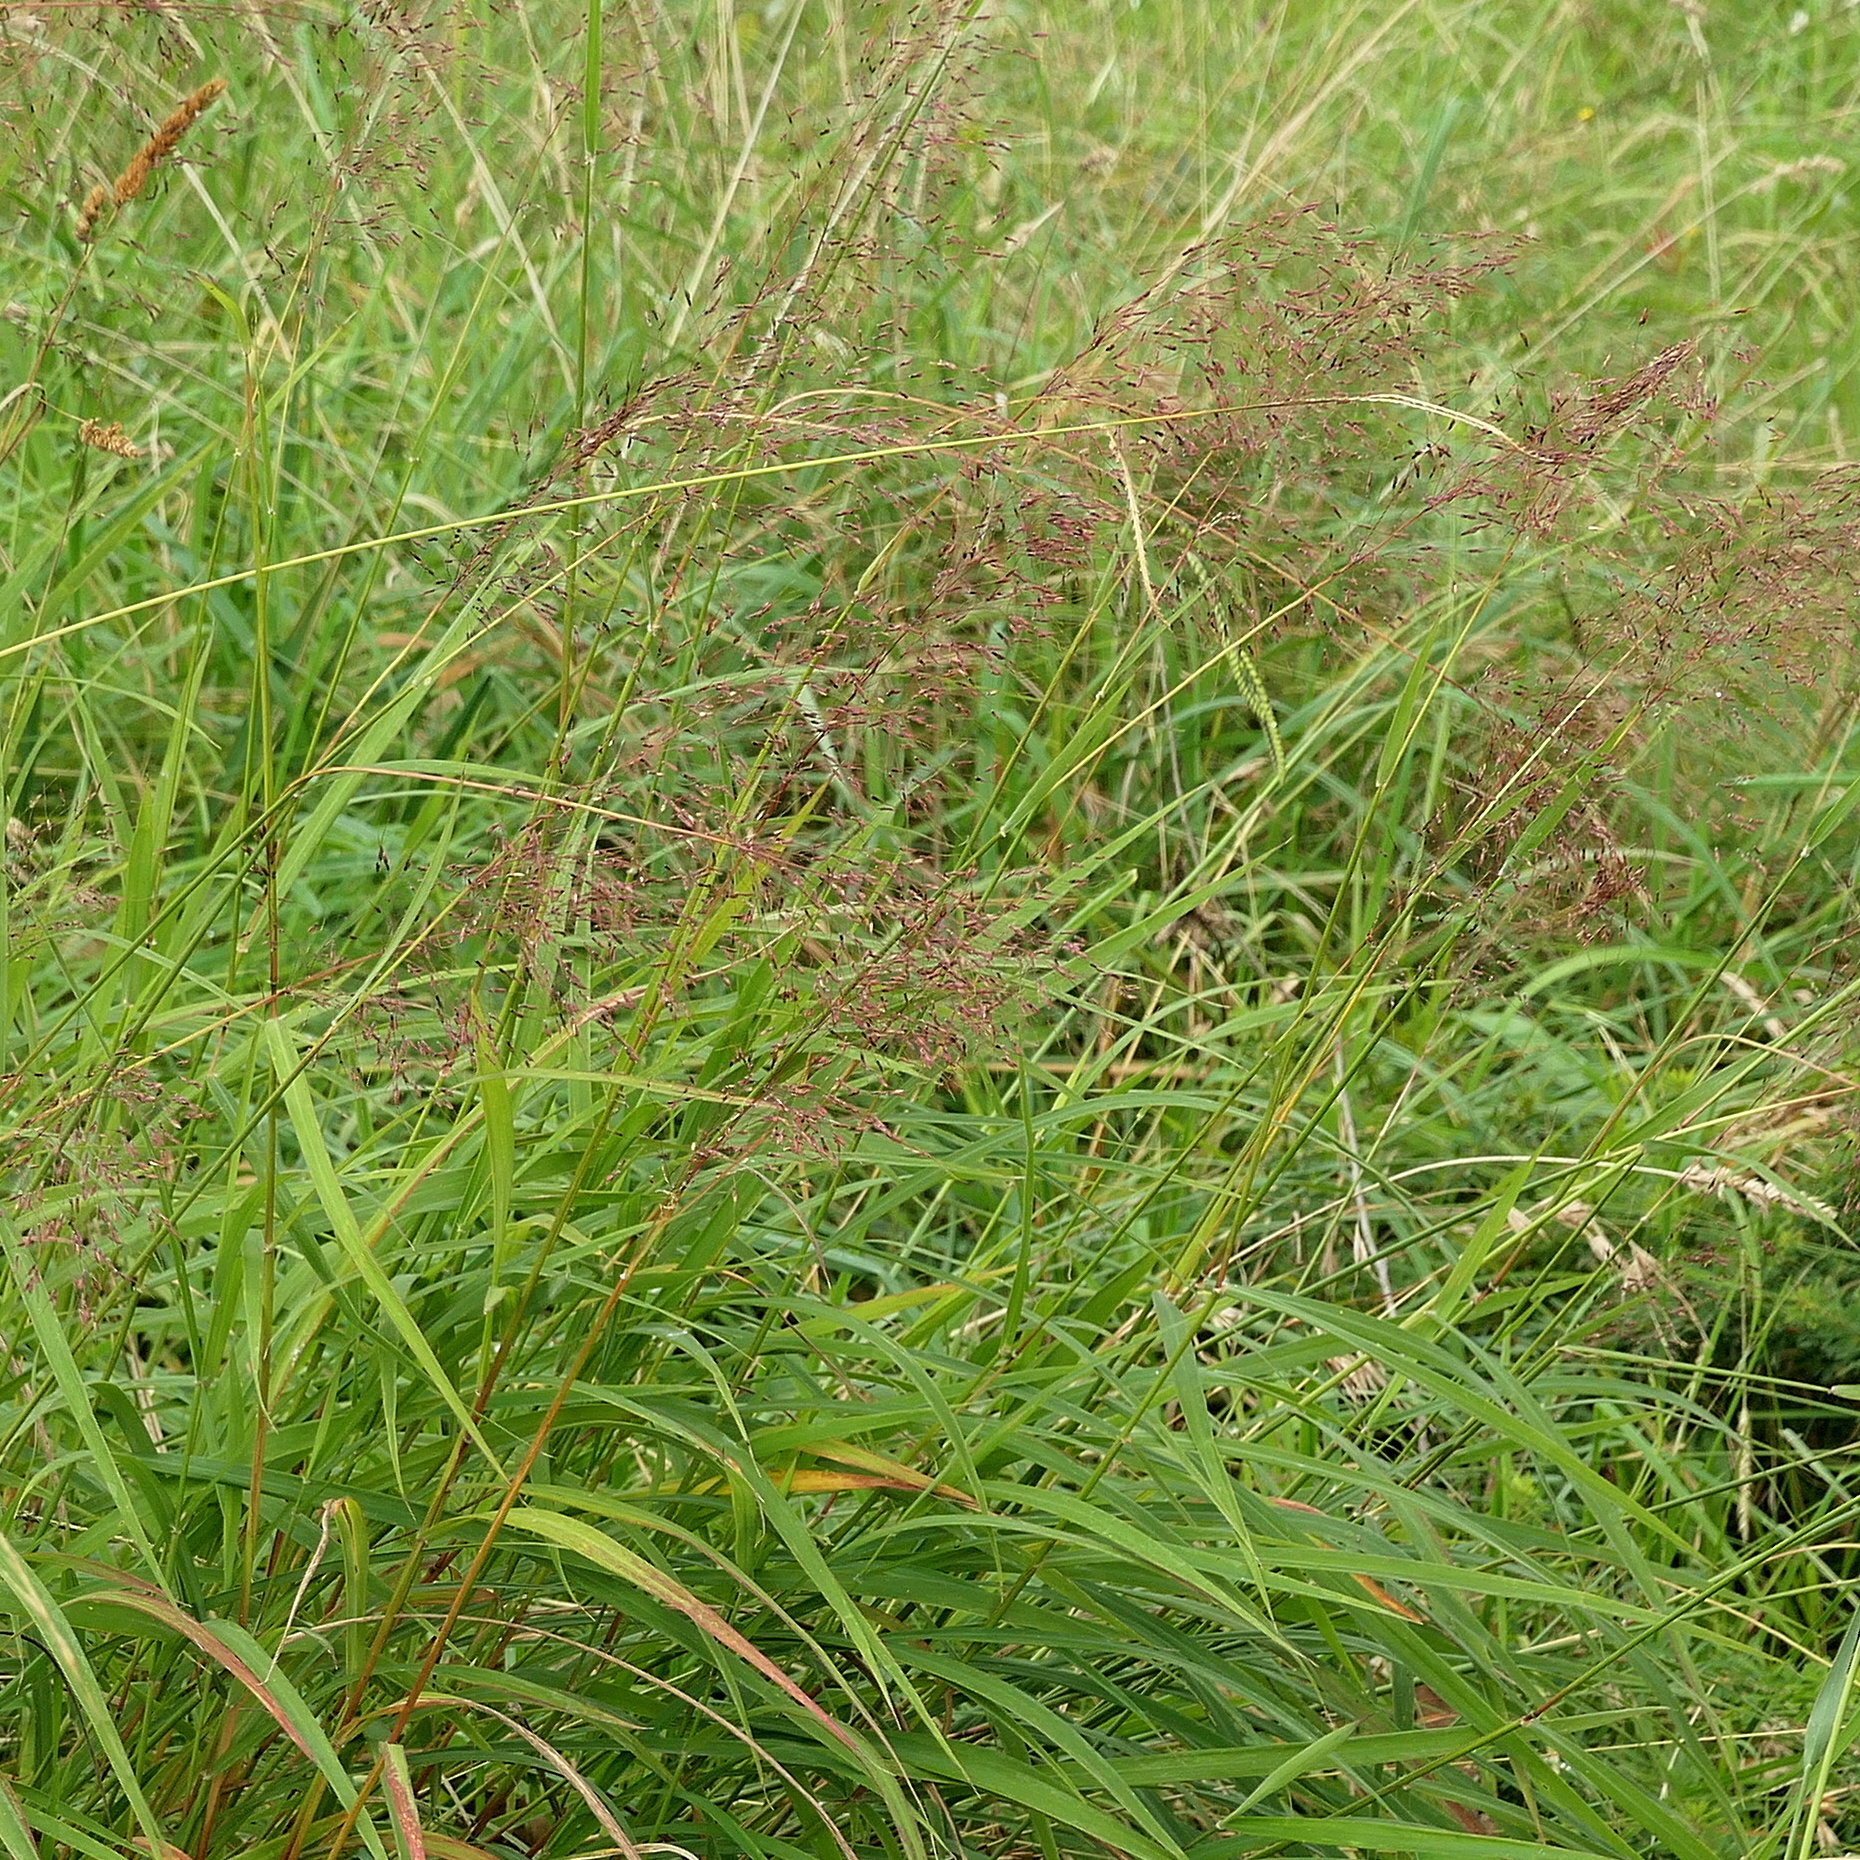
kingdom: Plantae
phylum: Tracheophyta
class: Liliopsida
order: Poales
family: Poaceae
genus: Capillipedium
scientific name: Capillipedium parviflorum
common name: Golden-beard
